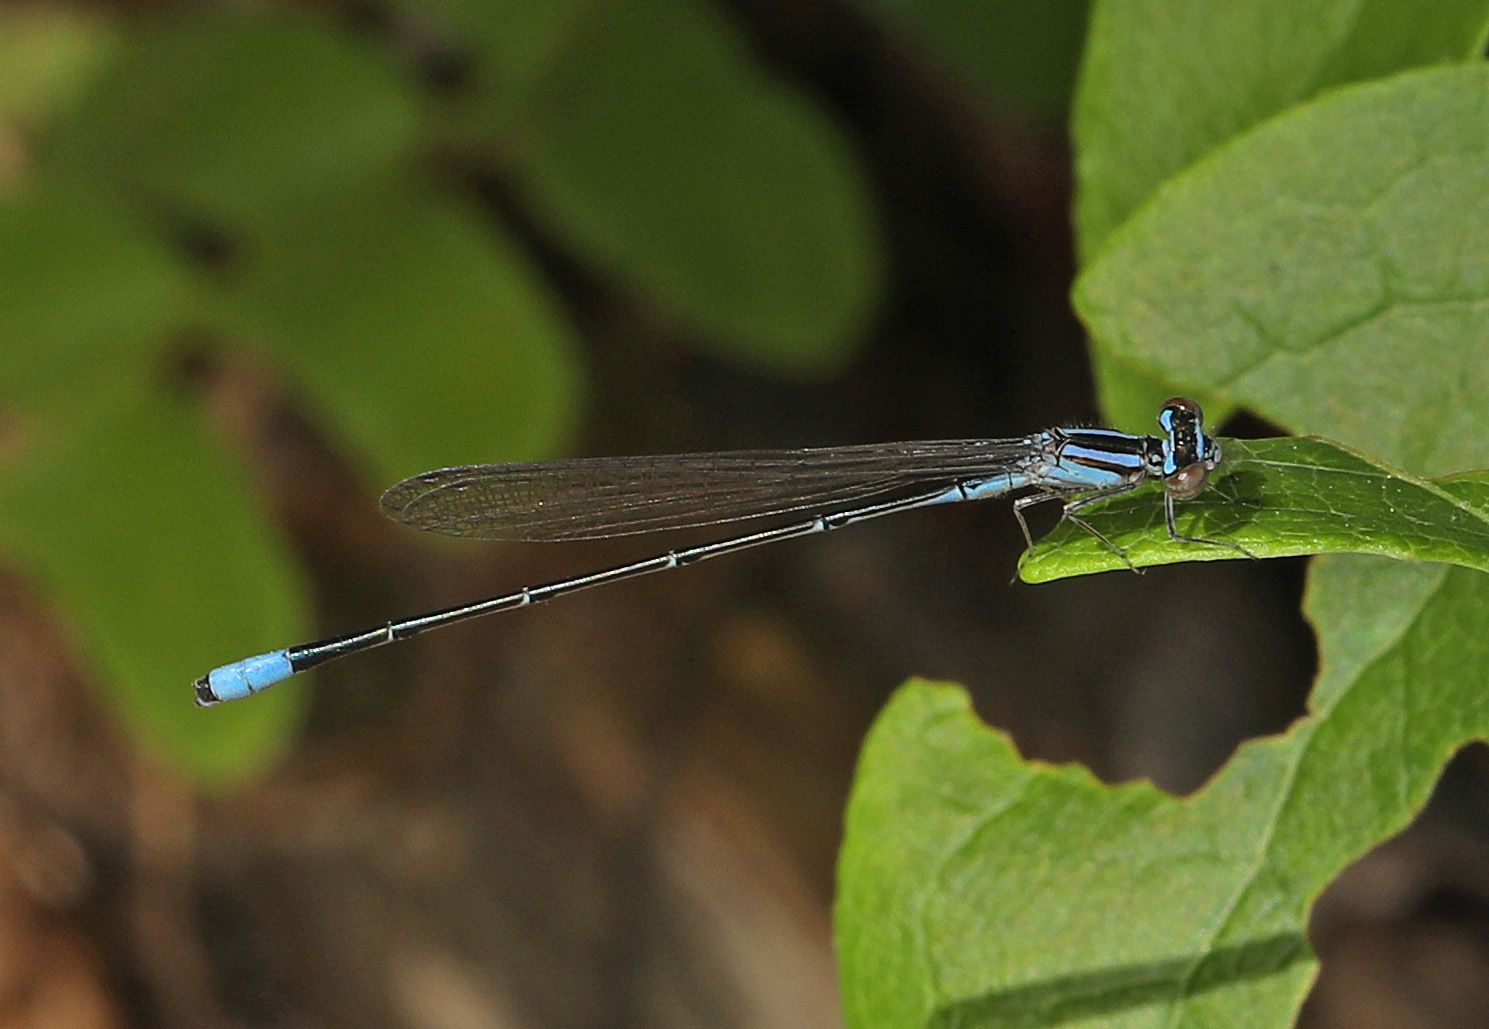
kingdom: Animalia
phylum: Arthropoda
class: Insecta
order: Odonata
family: Coenagrionidae
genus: Enallagma
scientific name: Enallagma divagans
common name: Turquoise bluet
